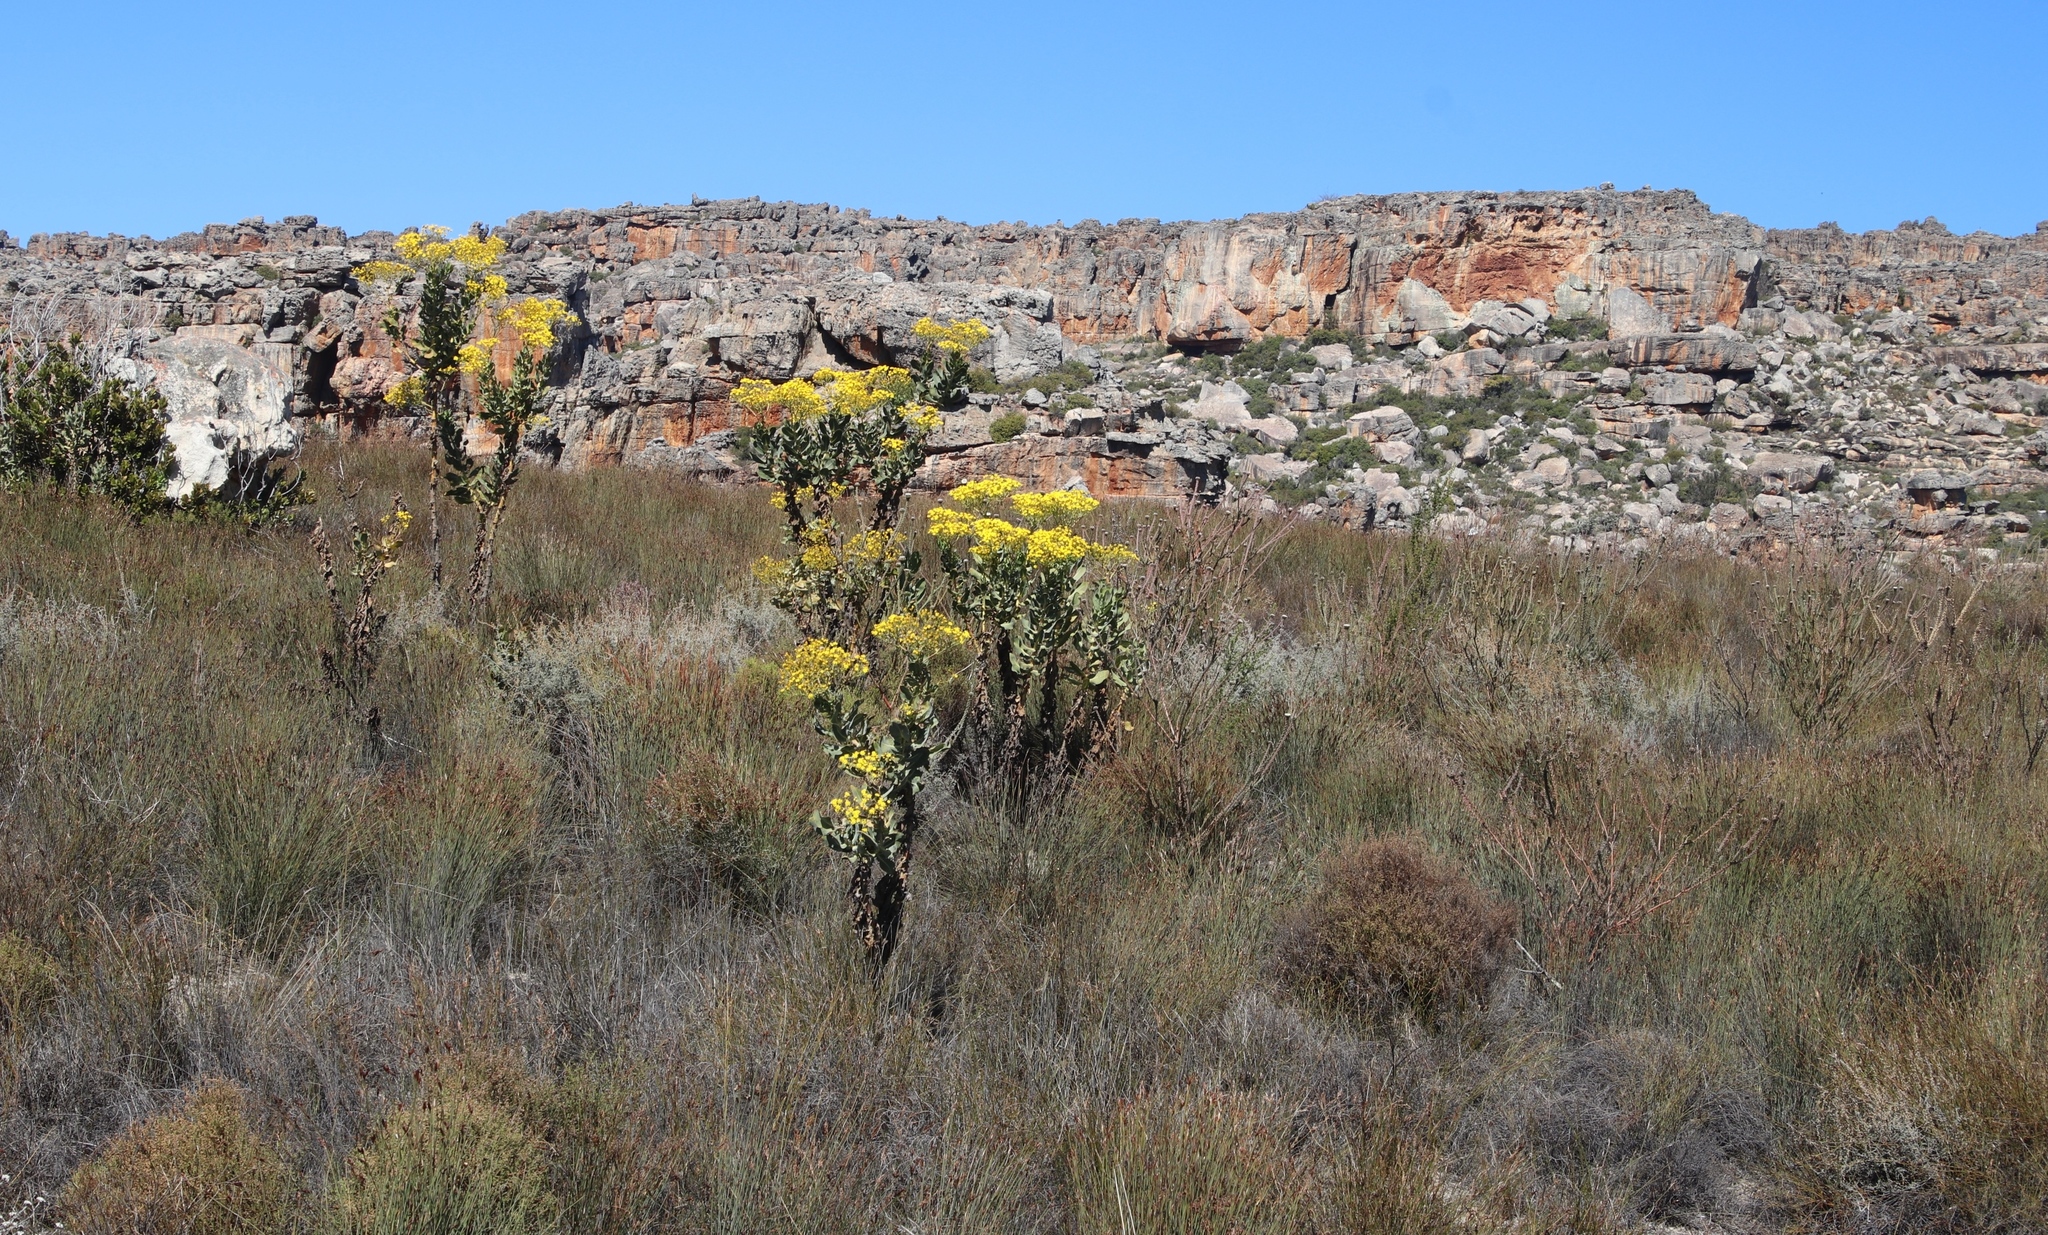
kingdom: Plantae
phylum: Tracheophyta
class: Magnoliopsida
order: Asterales
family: Asteraceae
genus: Othonna
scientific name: Othonna parviflora
